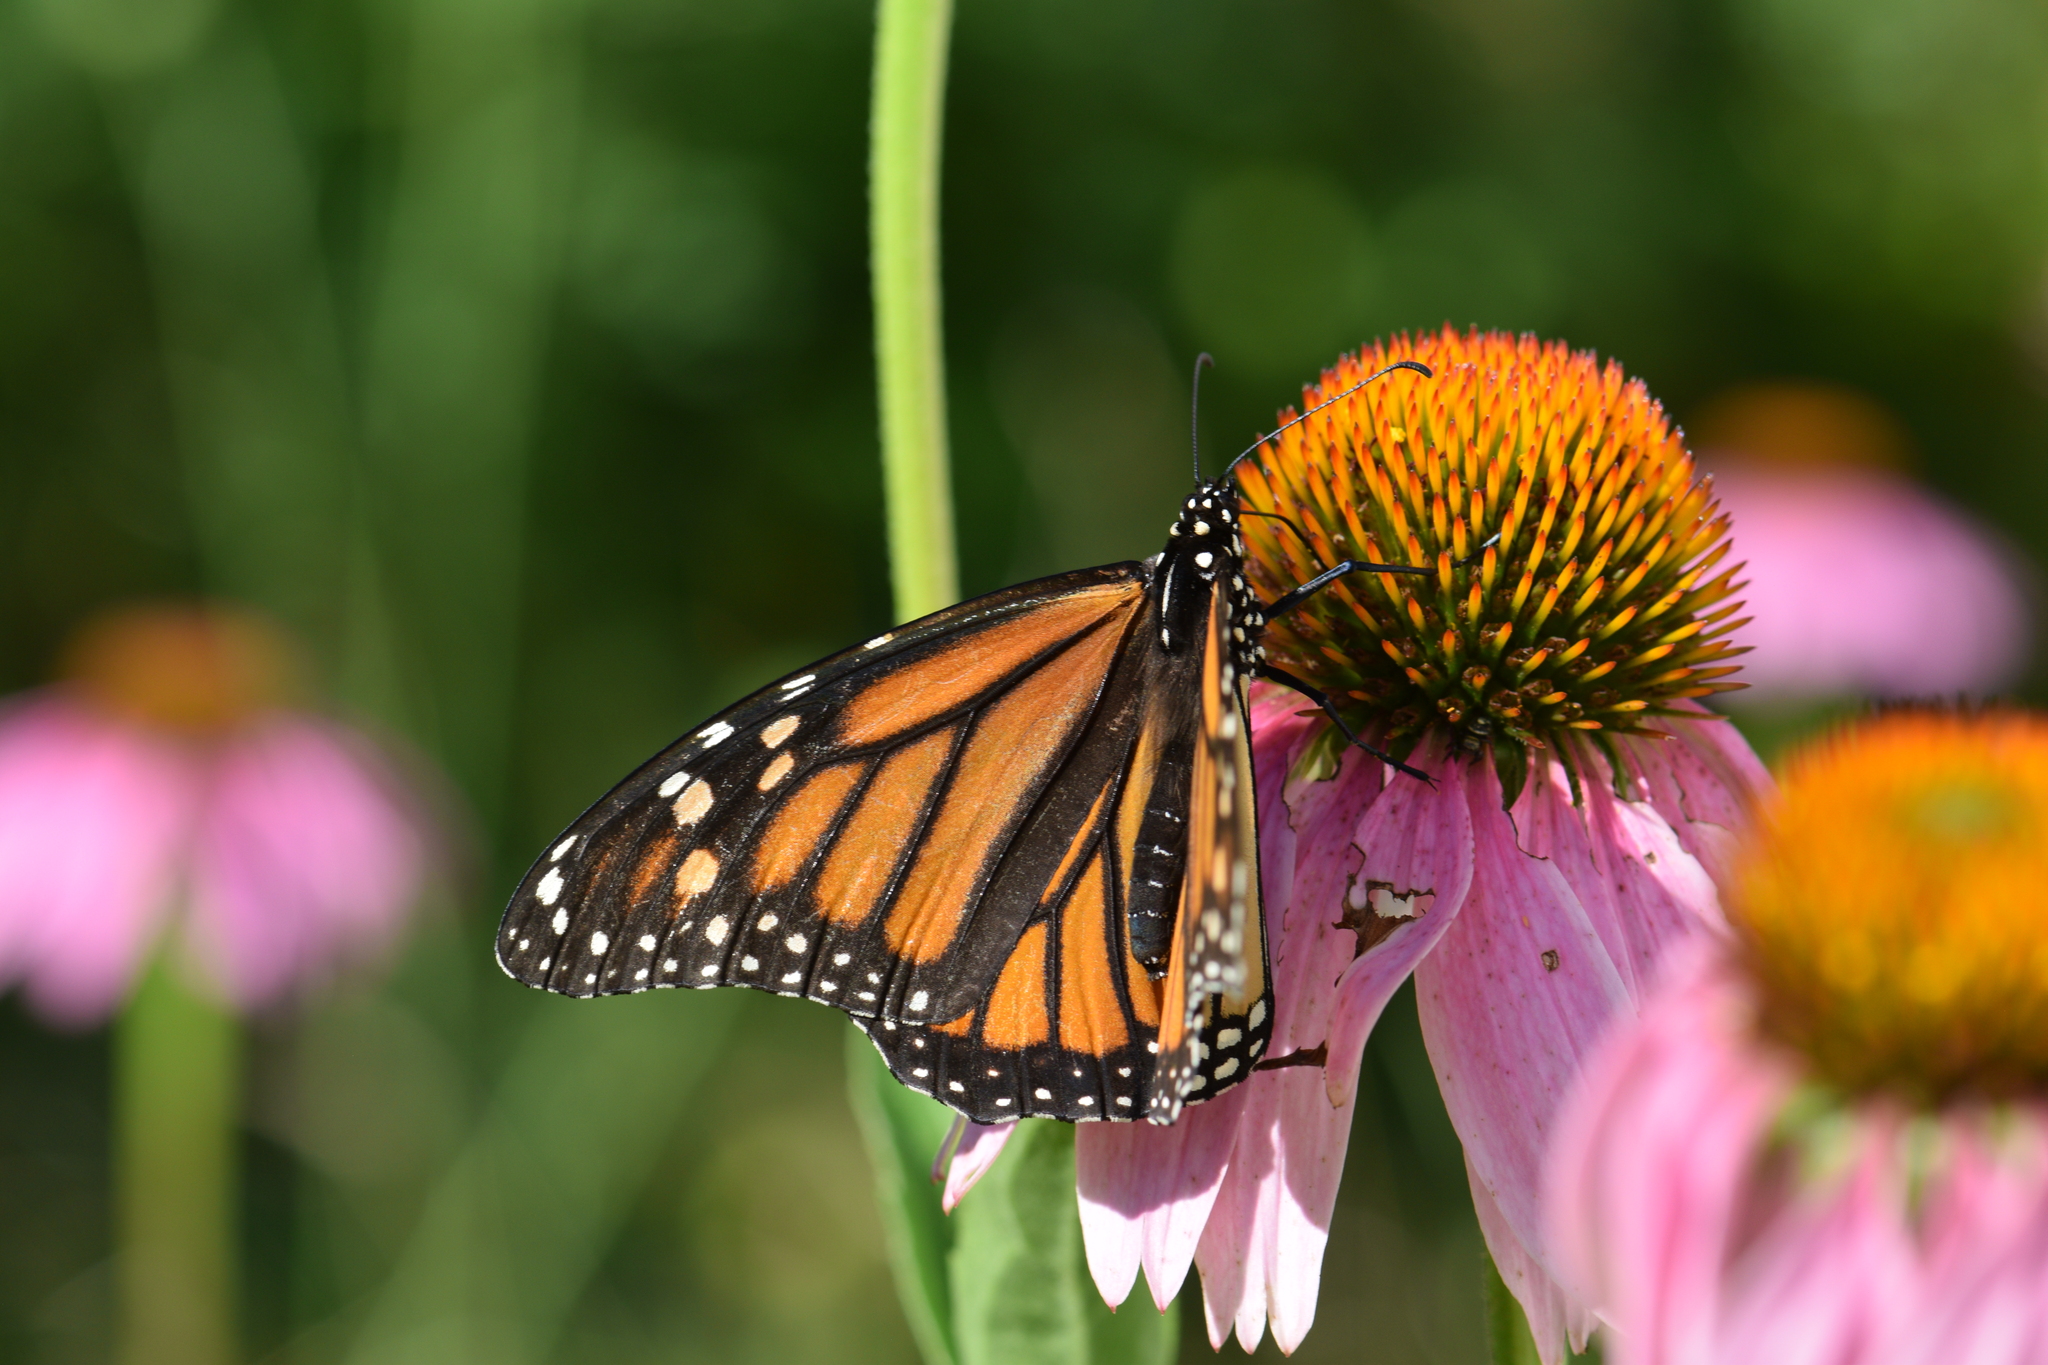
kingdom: Animalia
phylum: Arthropoda
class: Insecta
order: Lepidoptera
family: Nymphalidae
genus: Danaus
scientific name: Danaus plexippus
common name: Monarch
